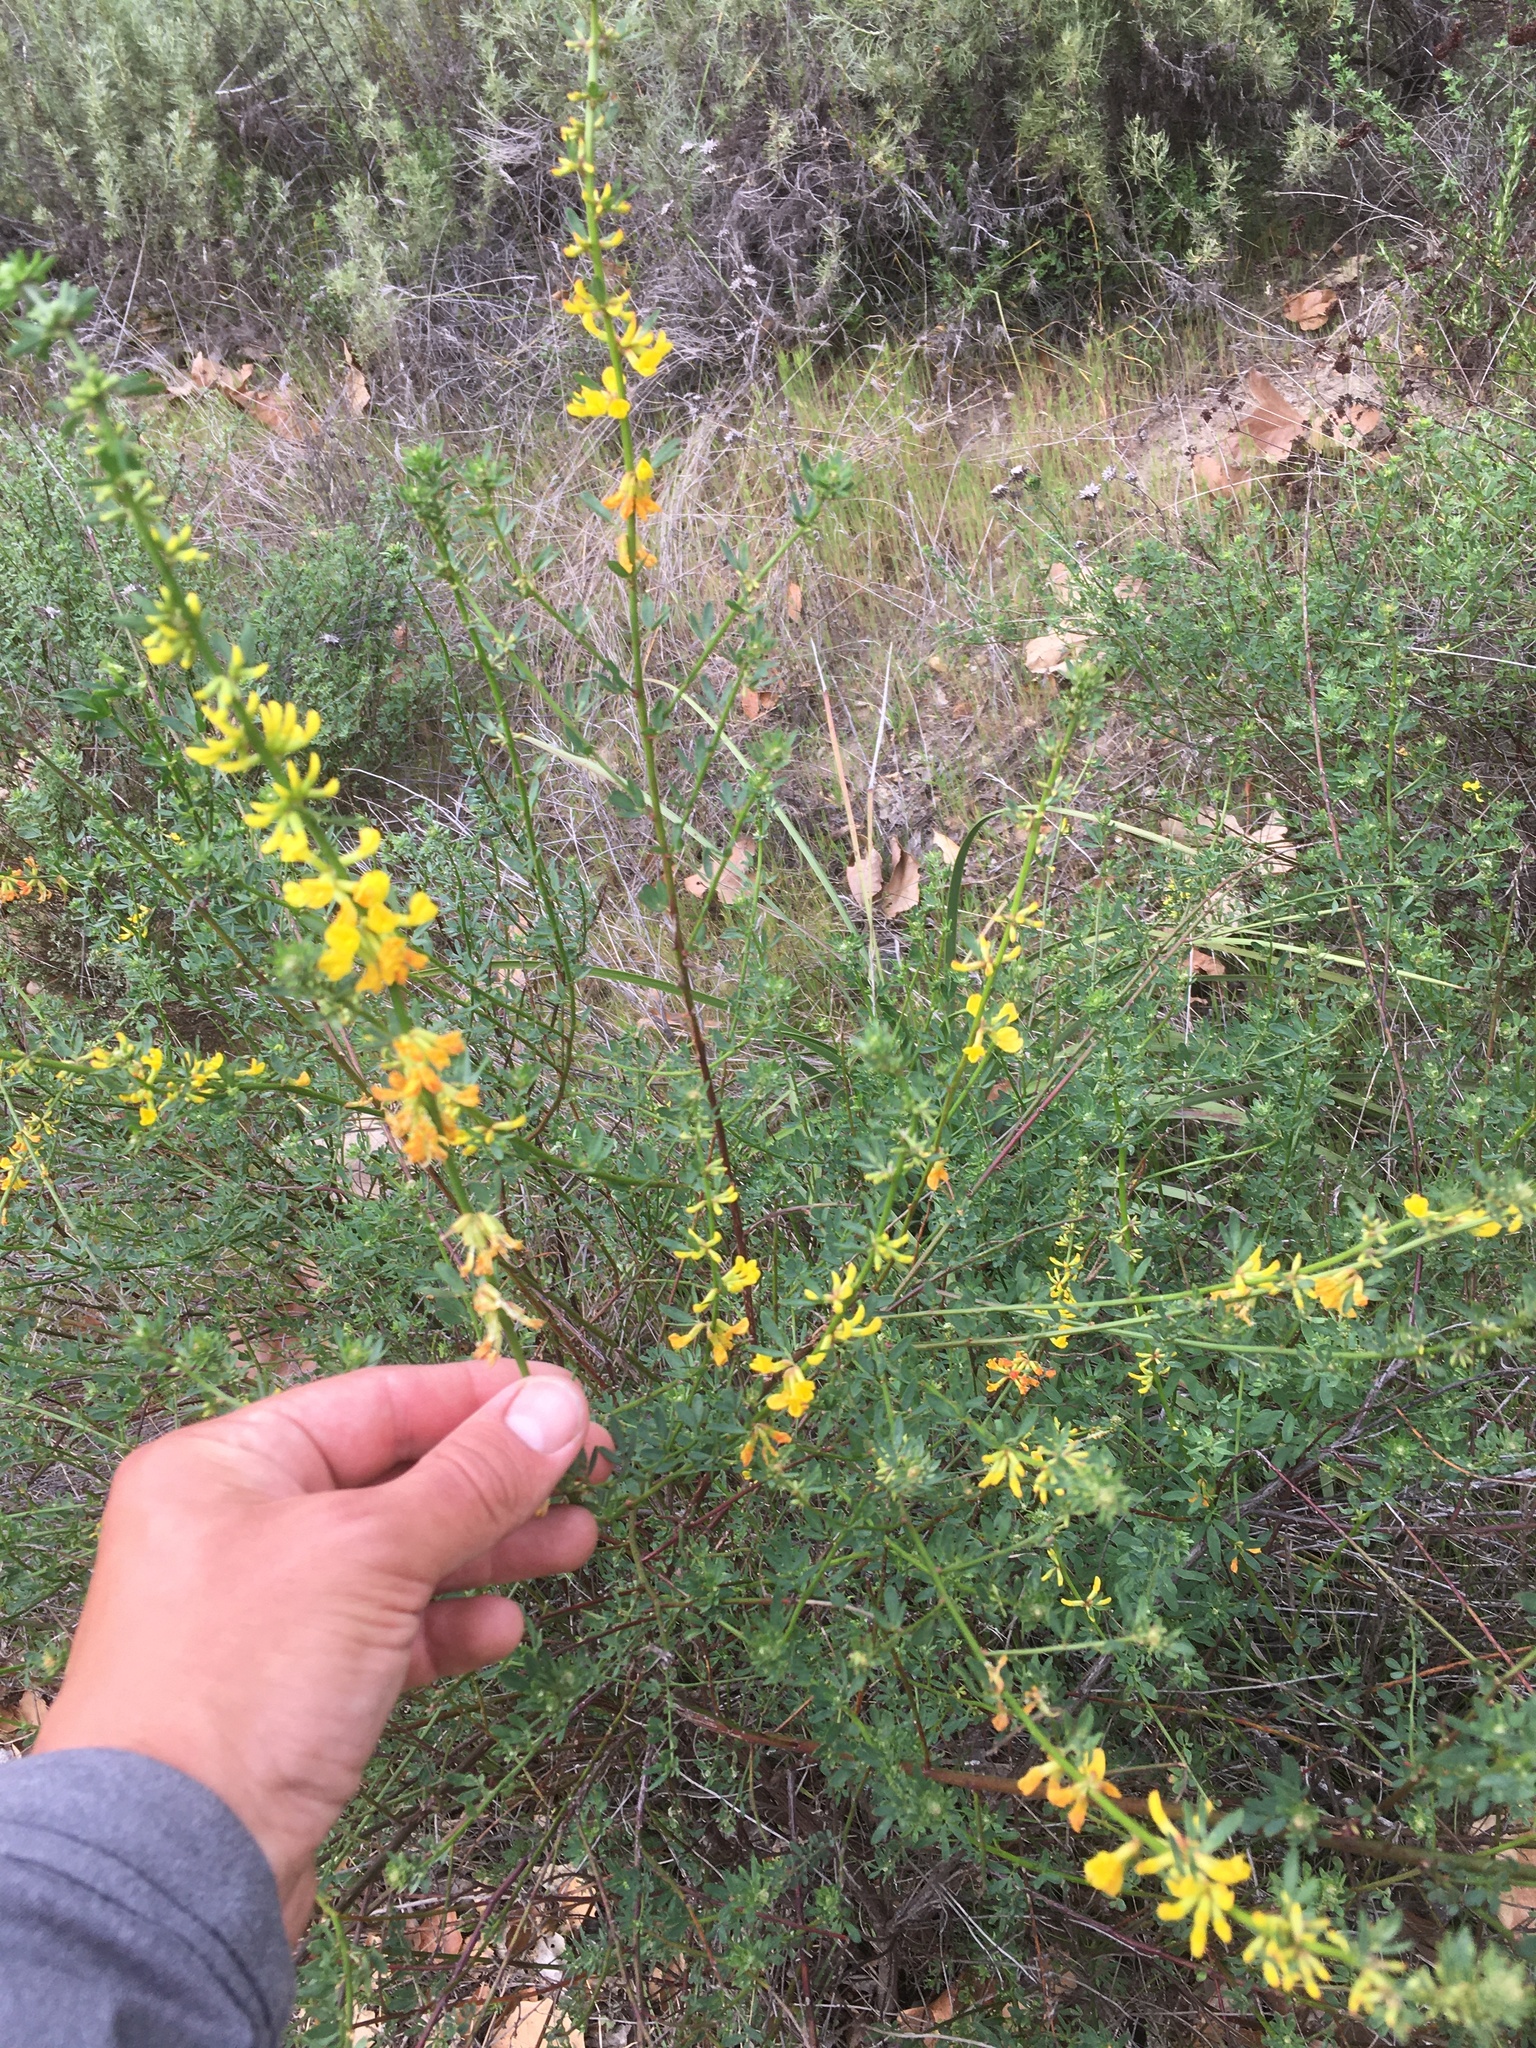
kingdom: Plantae
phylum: Tracheophyta
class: Magnoliopsida
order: Fabales
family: Fabaceae
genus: Acmispon
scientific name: Acmispon glaber
